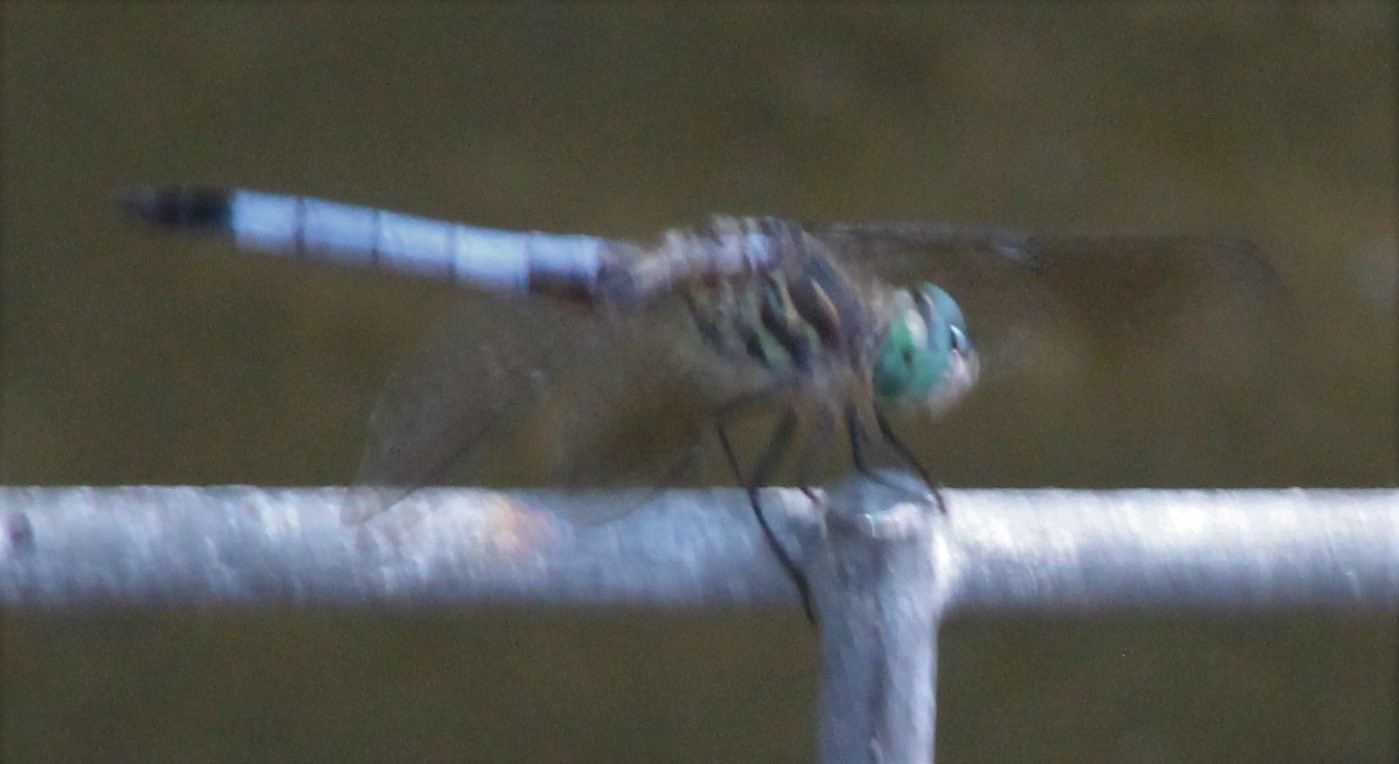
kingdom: Animalia
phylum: Arthropoda
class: Insecta
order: Odonata
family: Libellulidae
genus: Pachydiplax
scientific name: Pachydiplax longipennis
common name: Blue dasher
